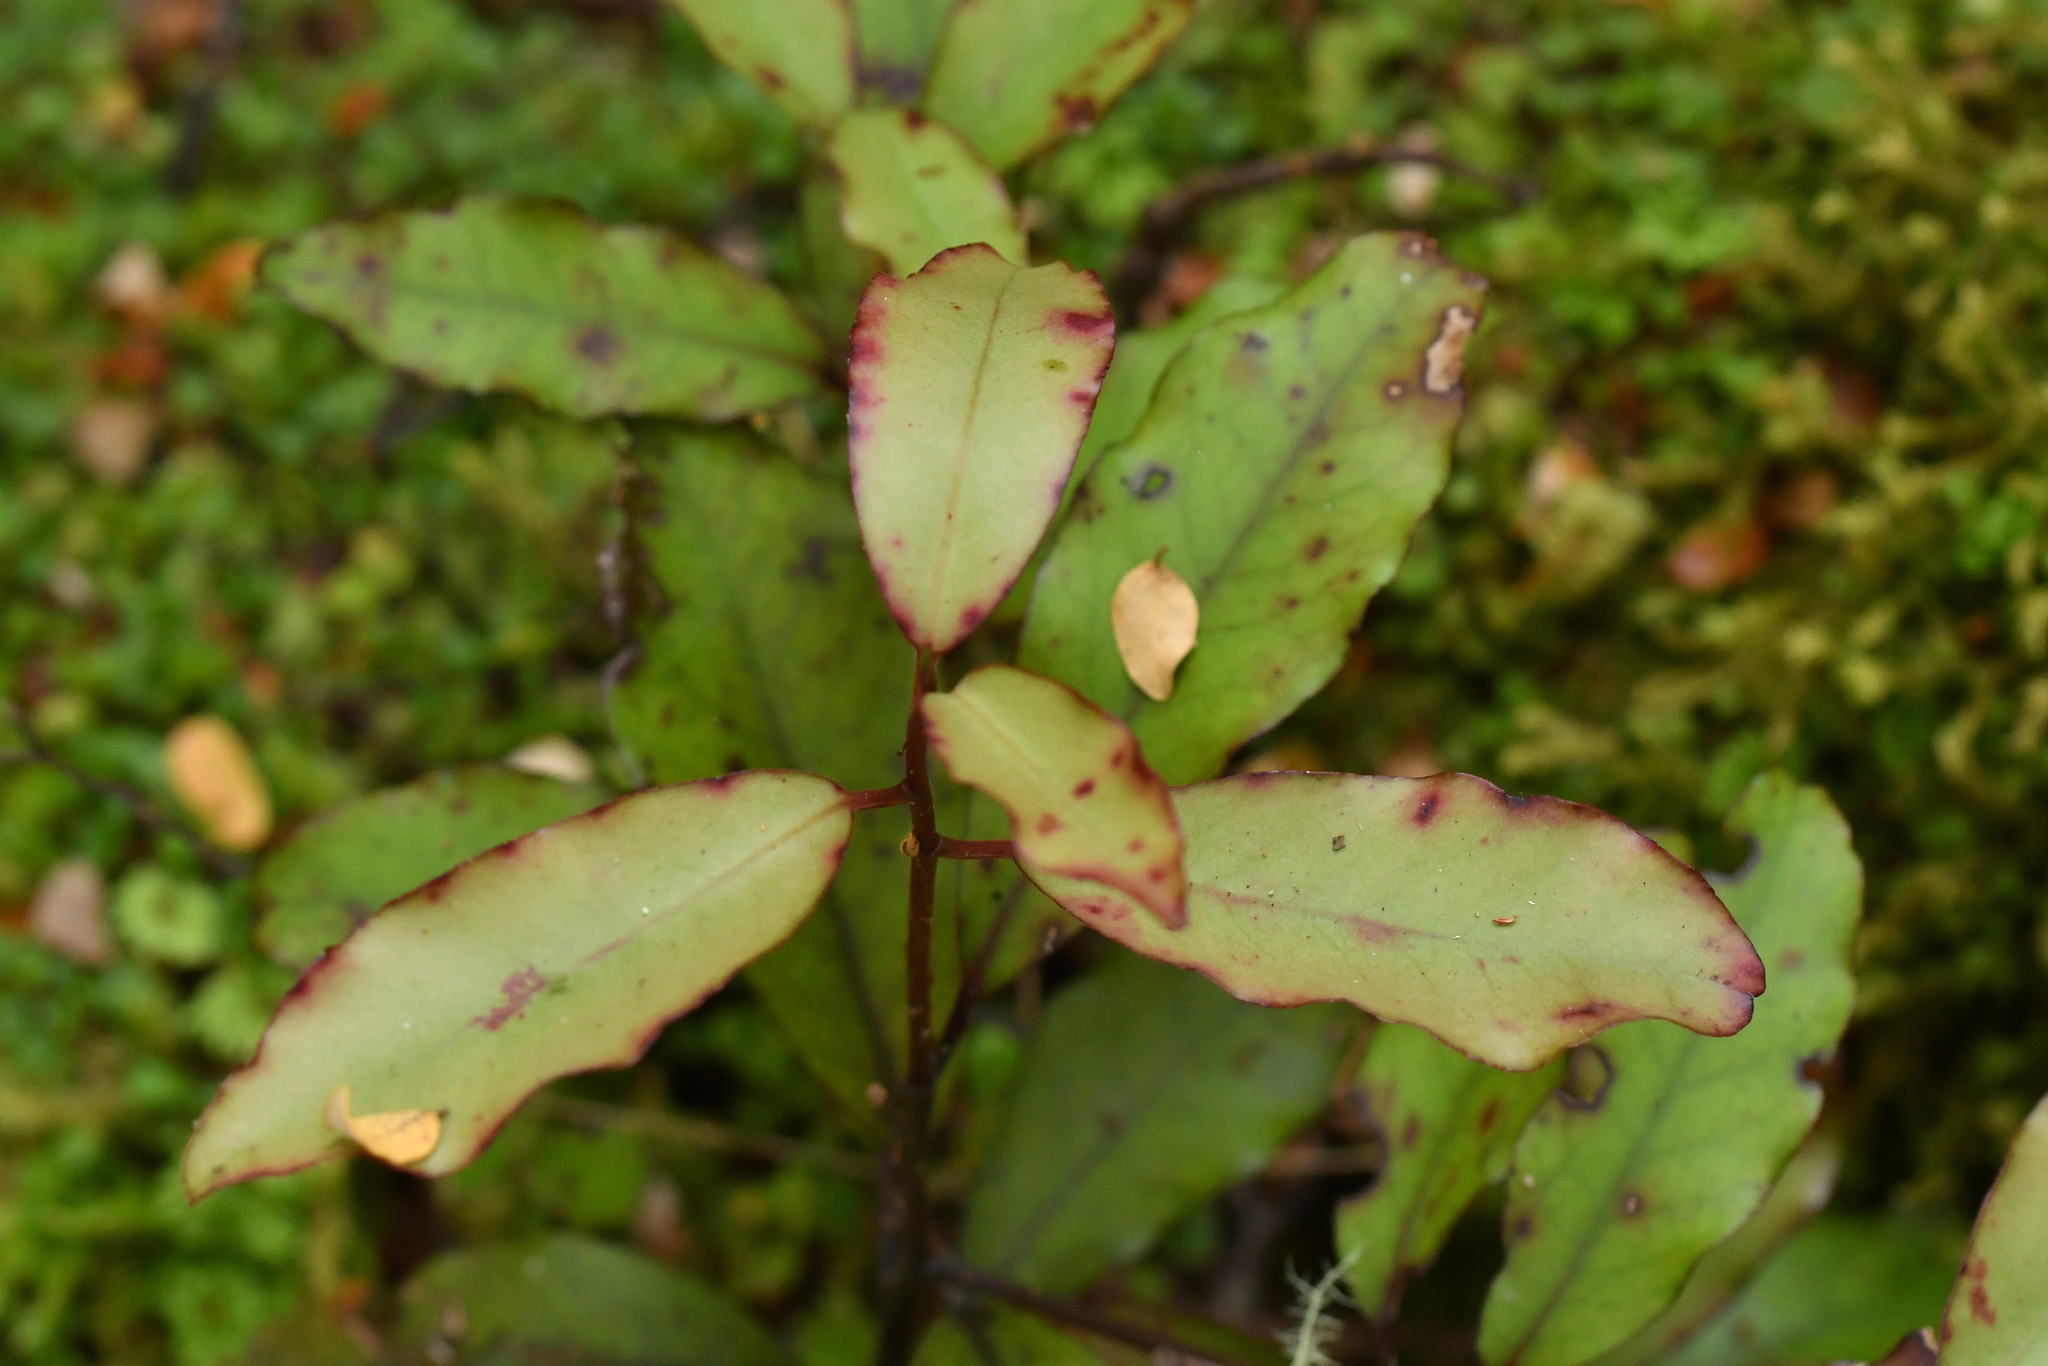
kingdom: Plantae
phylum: Tracheophyta
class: Magnoliopsida
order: Canellales
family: Winteraceae
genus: Pseudowintera
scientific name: Pseudowintera colorata
